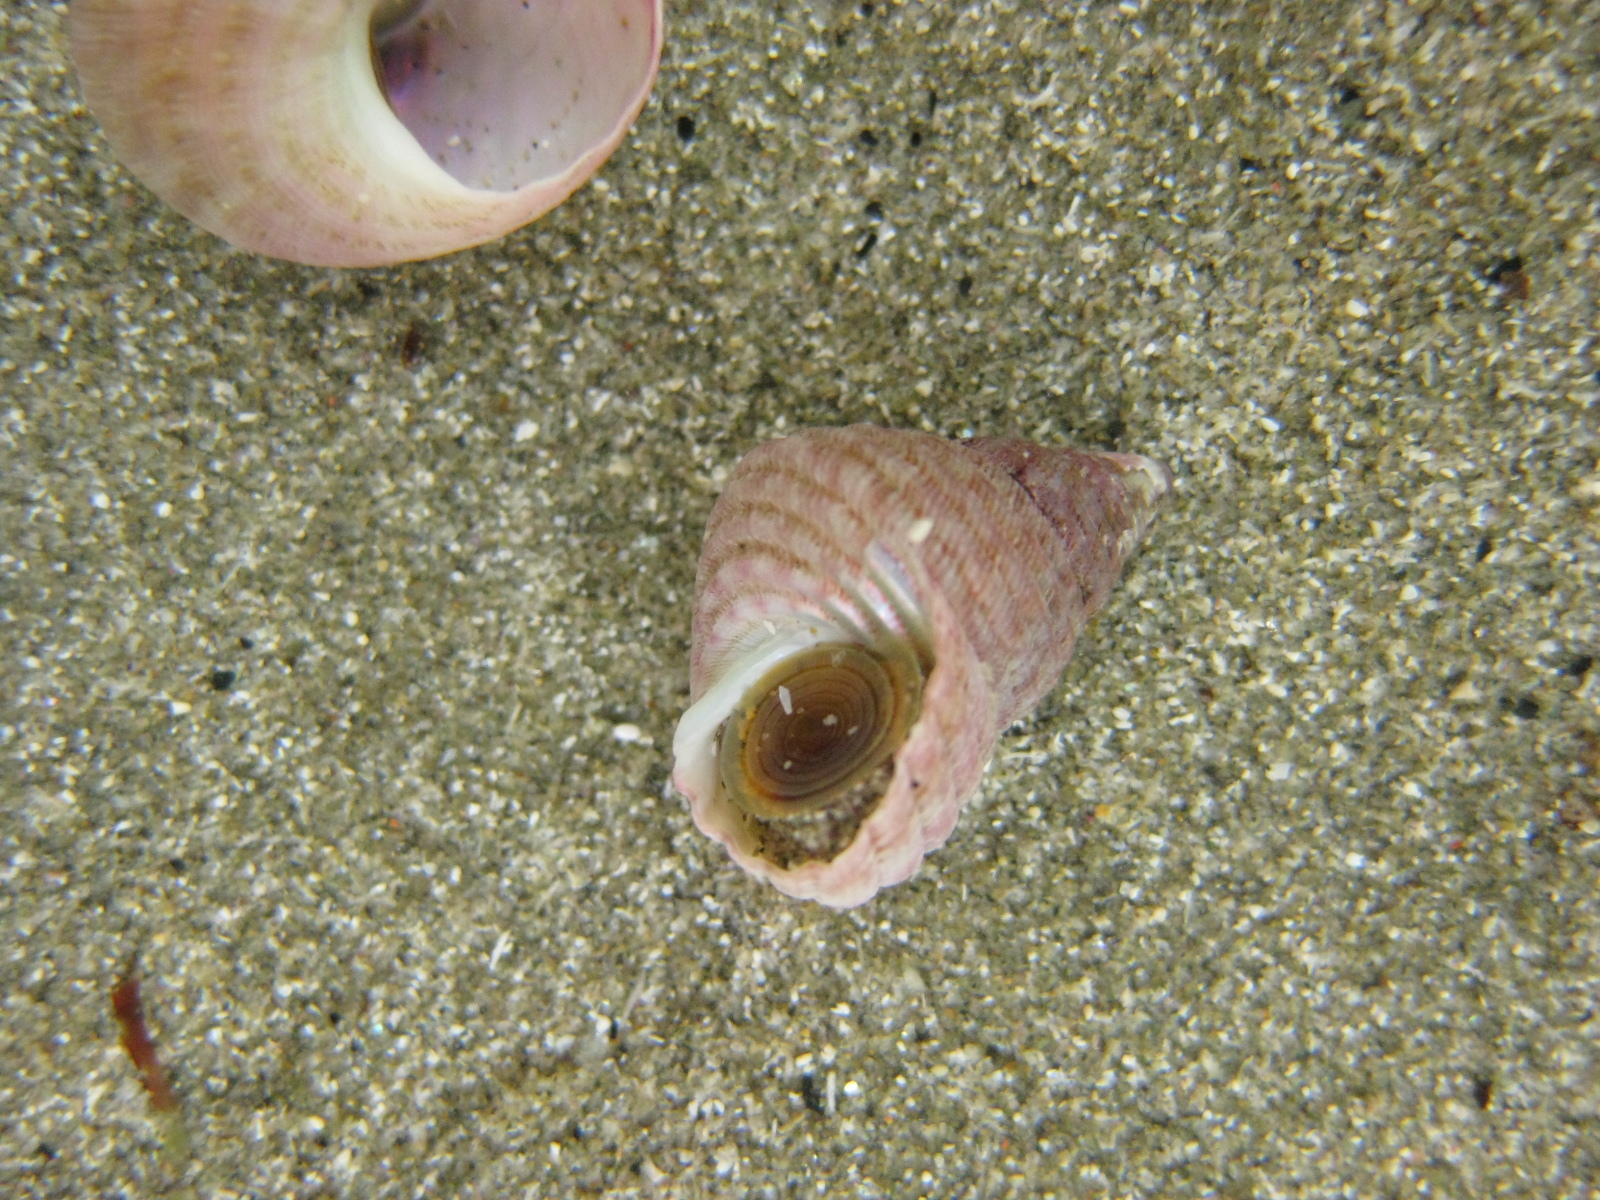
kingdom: Animalia
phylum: Mollusca
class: Gastropoda
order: Trochida
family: Trochidae
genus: Micrelenchus
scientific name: Micrelenchus purpureus
